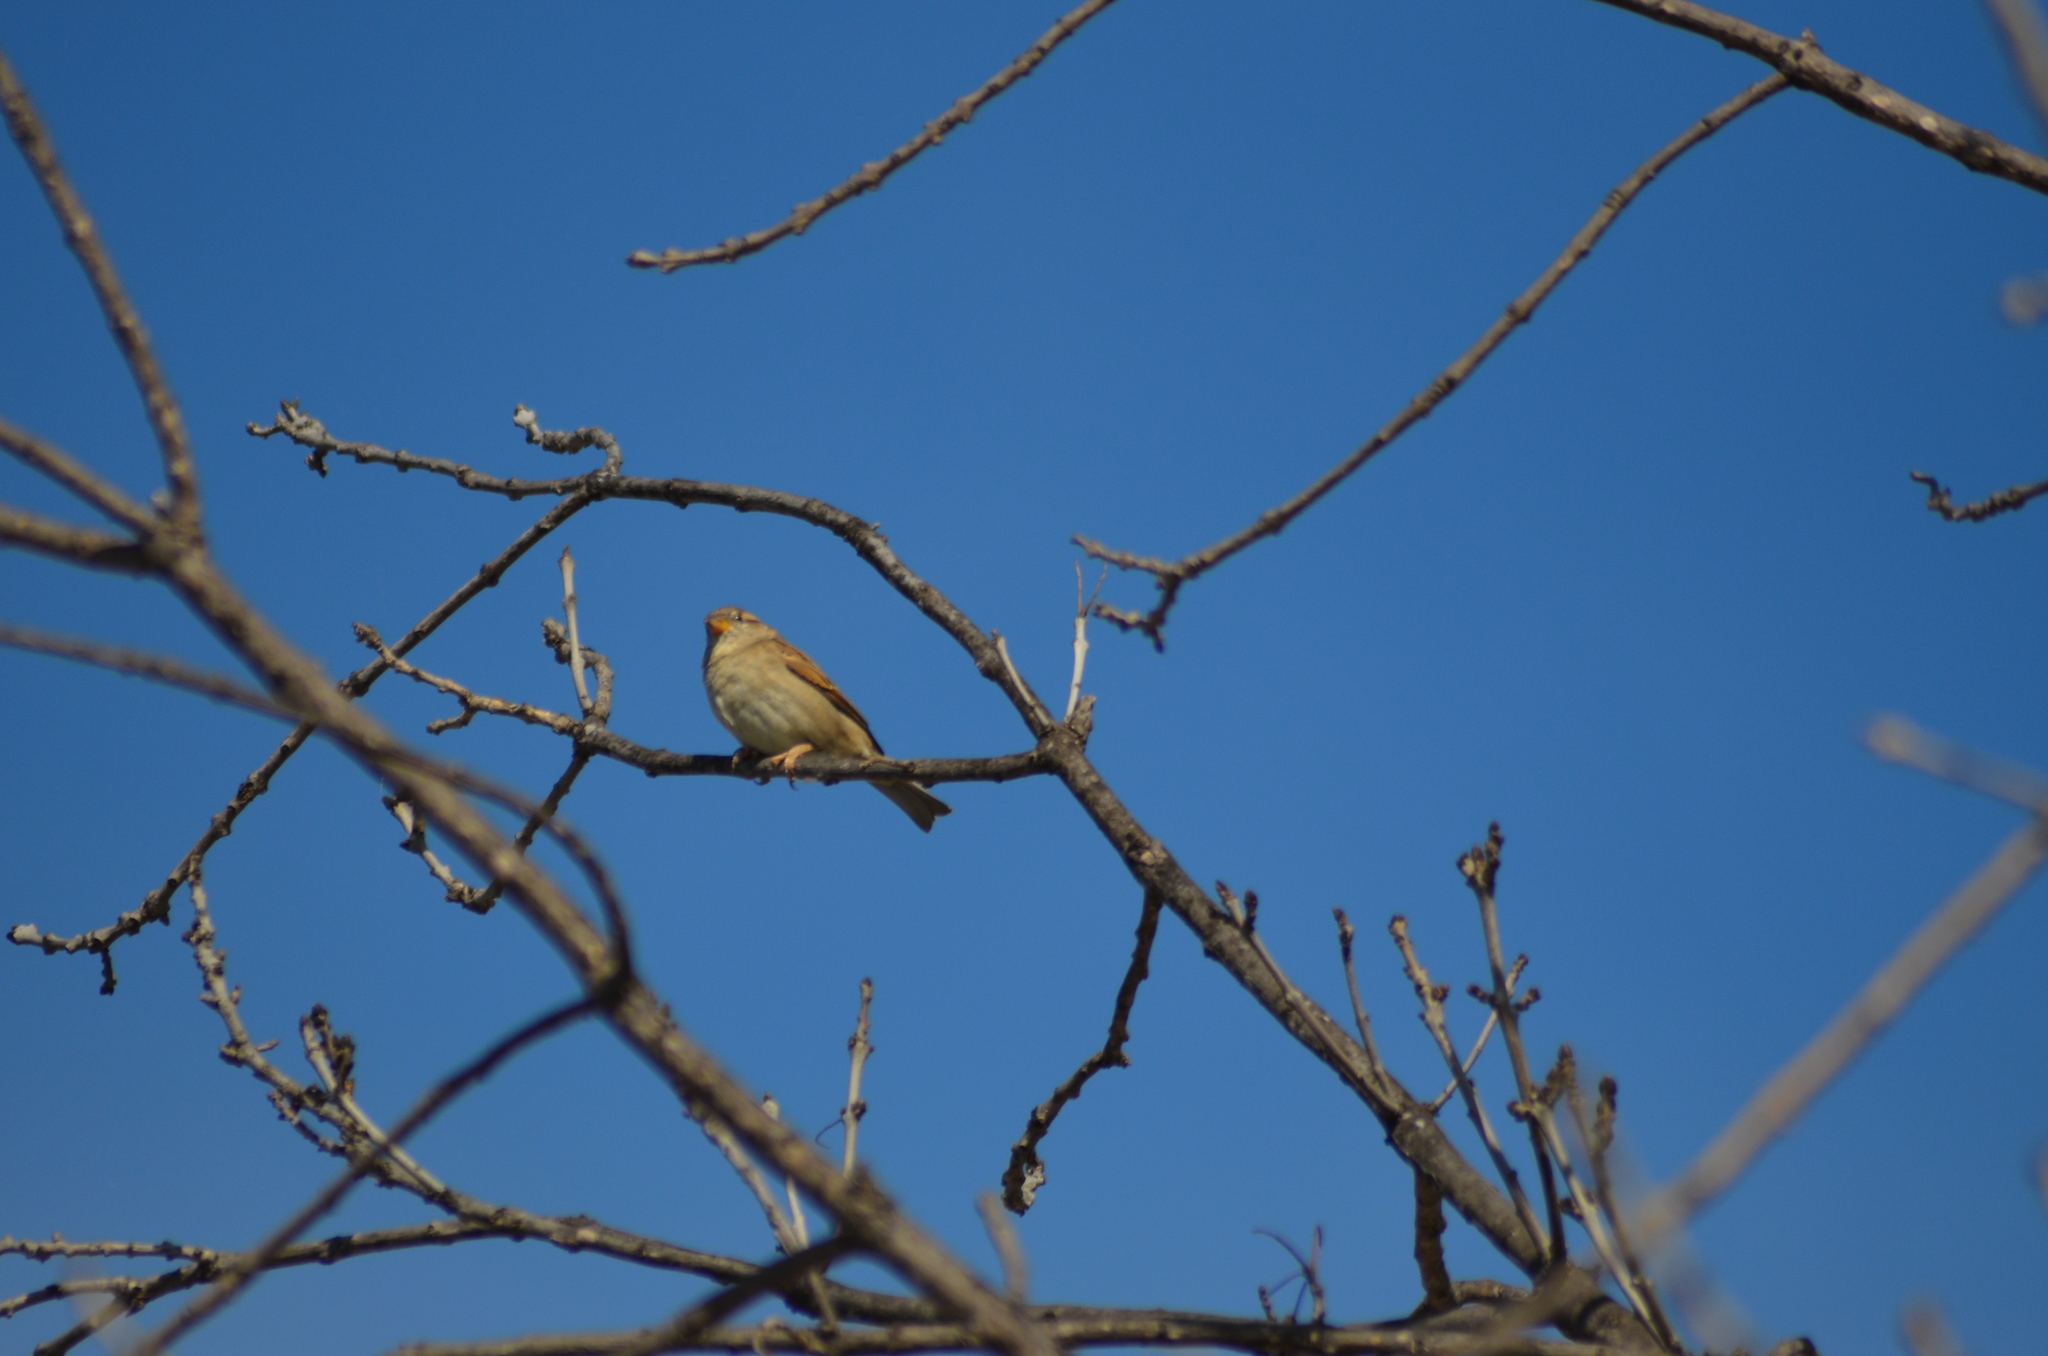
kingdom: Animalia
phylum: Chordata
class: Aves
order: Passeriformes
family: Passeridae
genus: Passer
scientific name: Passer domesticus
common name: House sparrow
